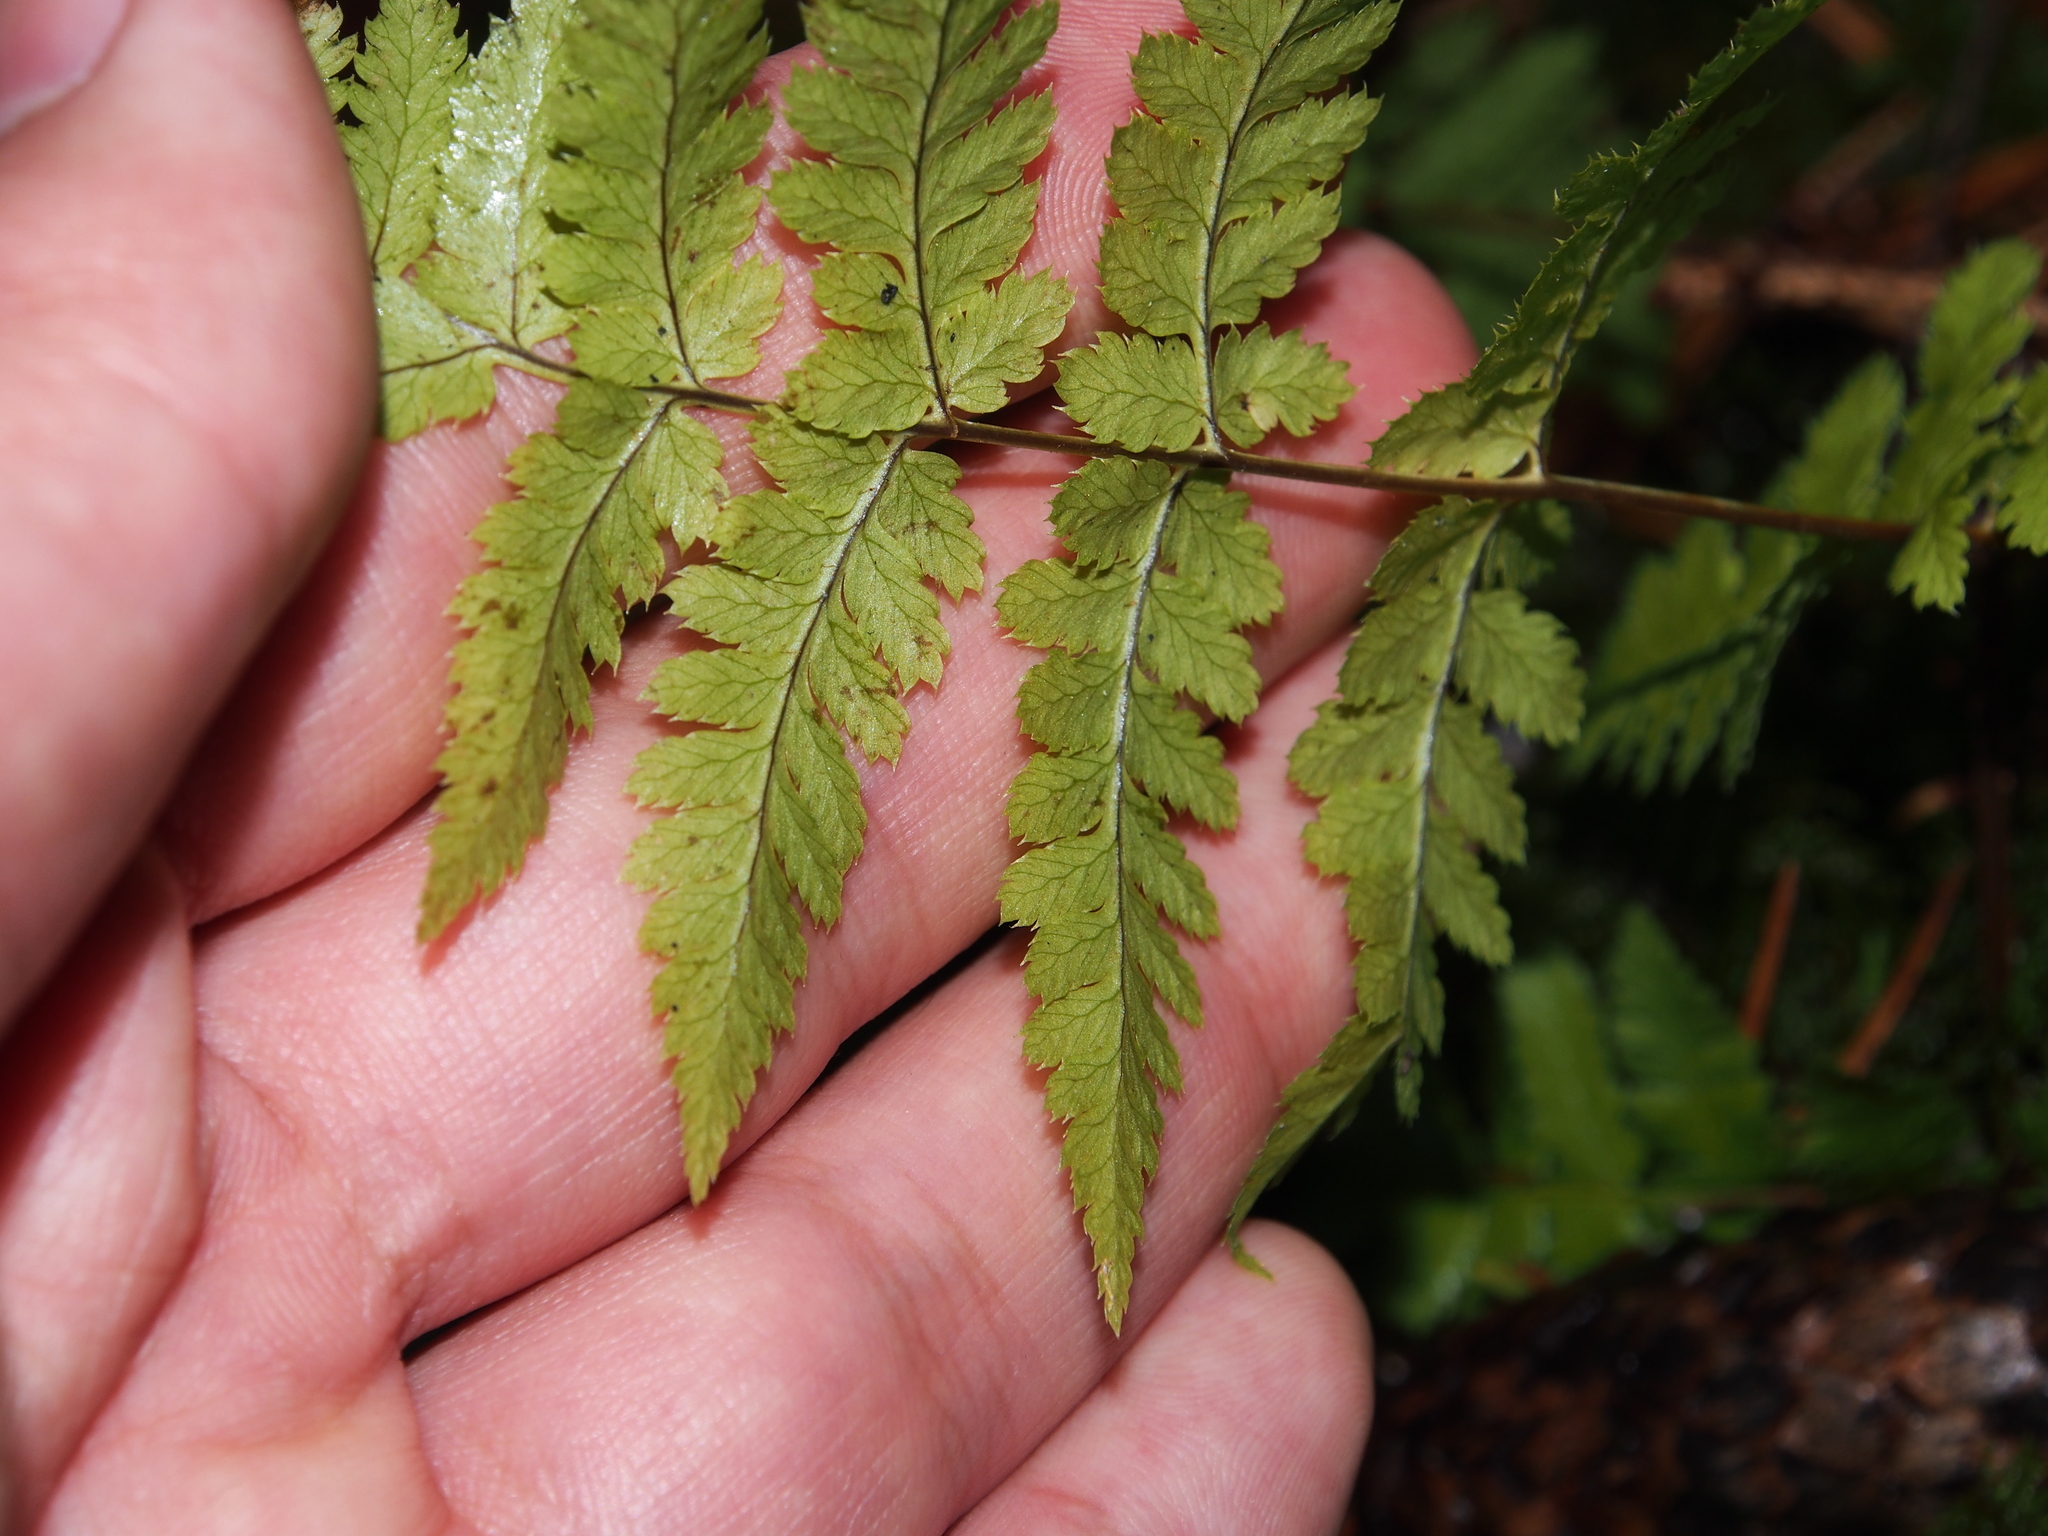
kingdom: Plantae
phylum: Tracheophyta
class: Polypodiopsida
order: Polypodiales
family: Dryopteridaceae
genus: Dryopteris
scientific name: Dryopteris carthusiana
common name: Narrow buckler-fern
